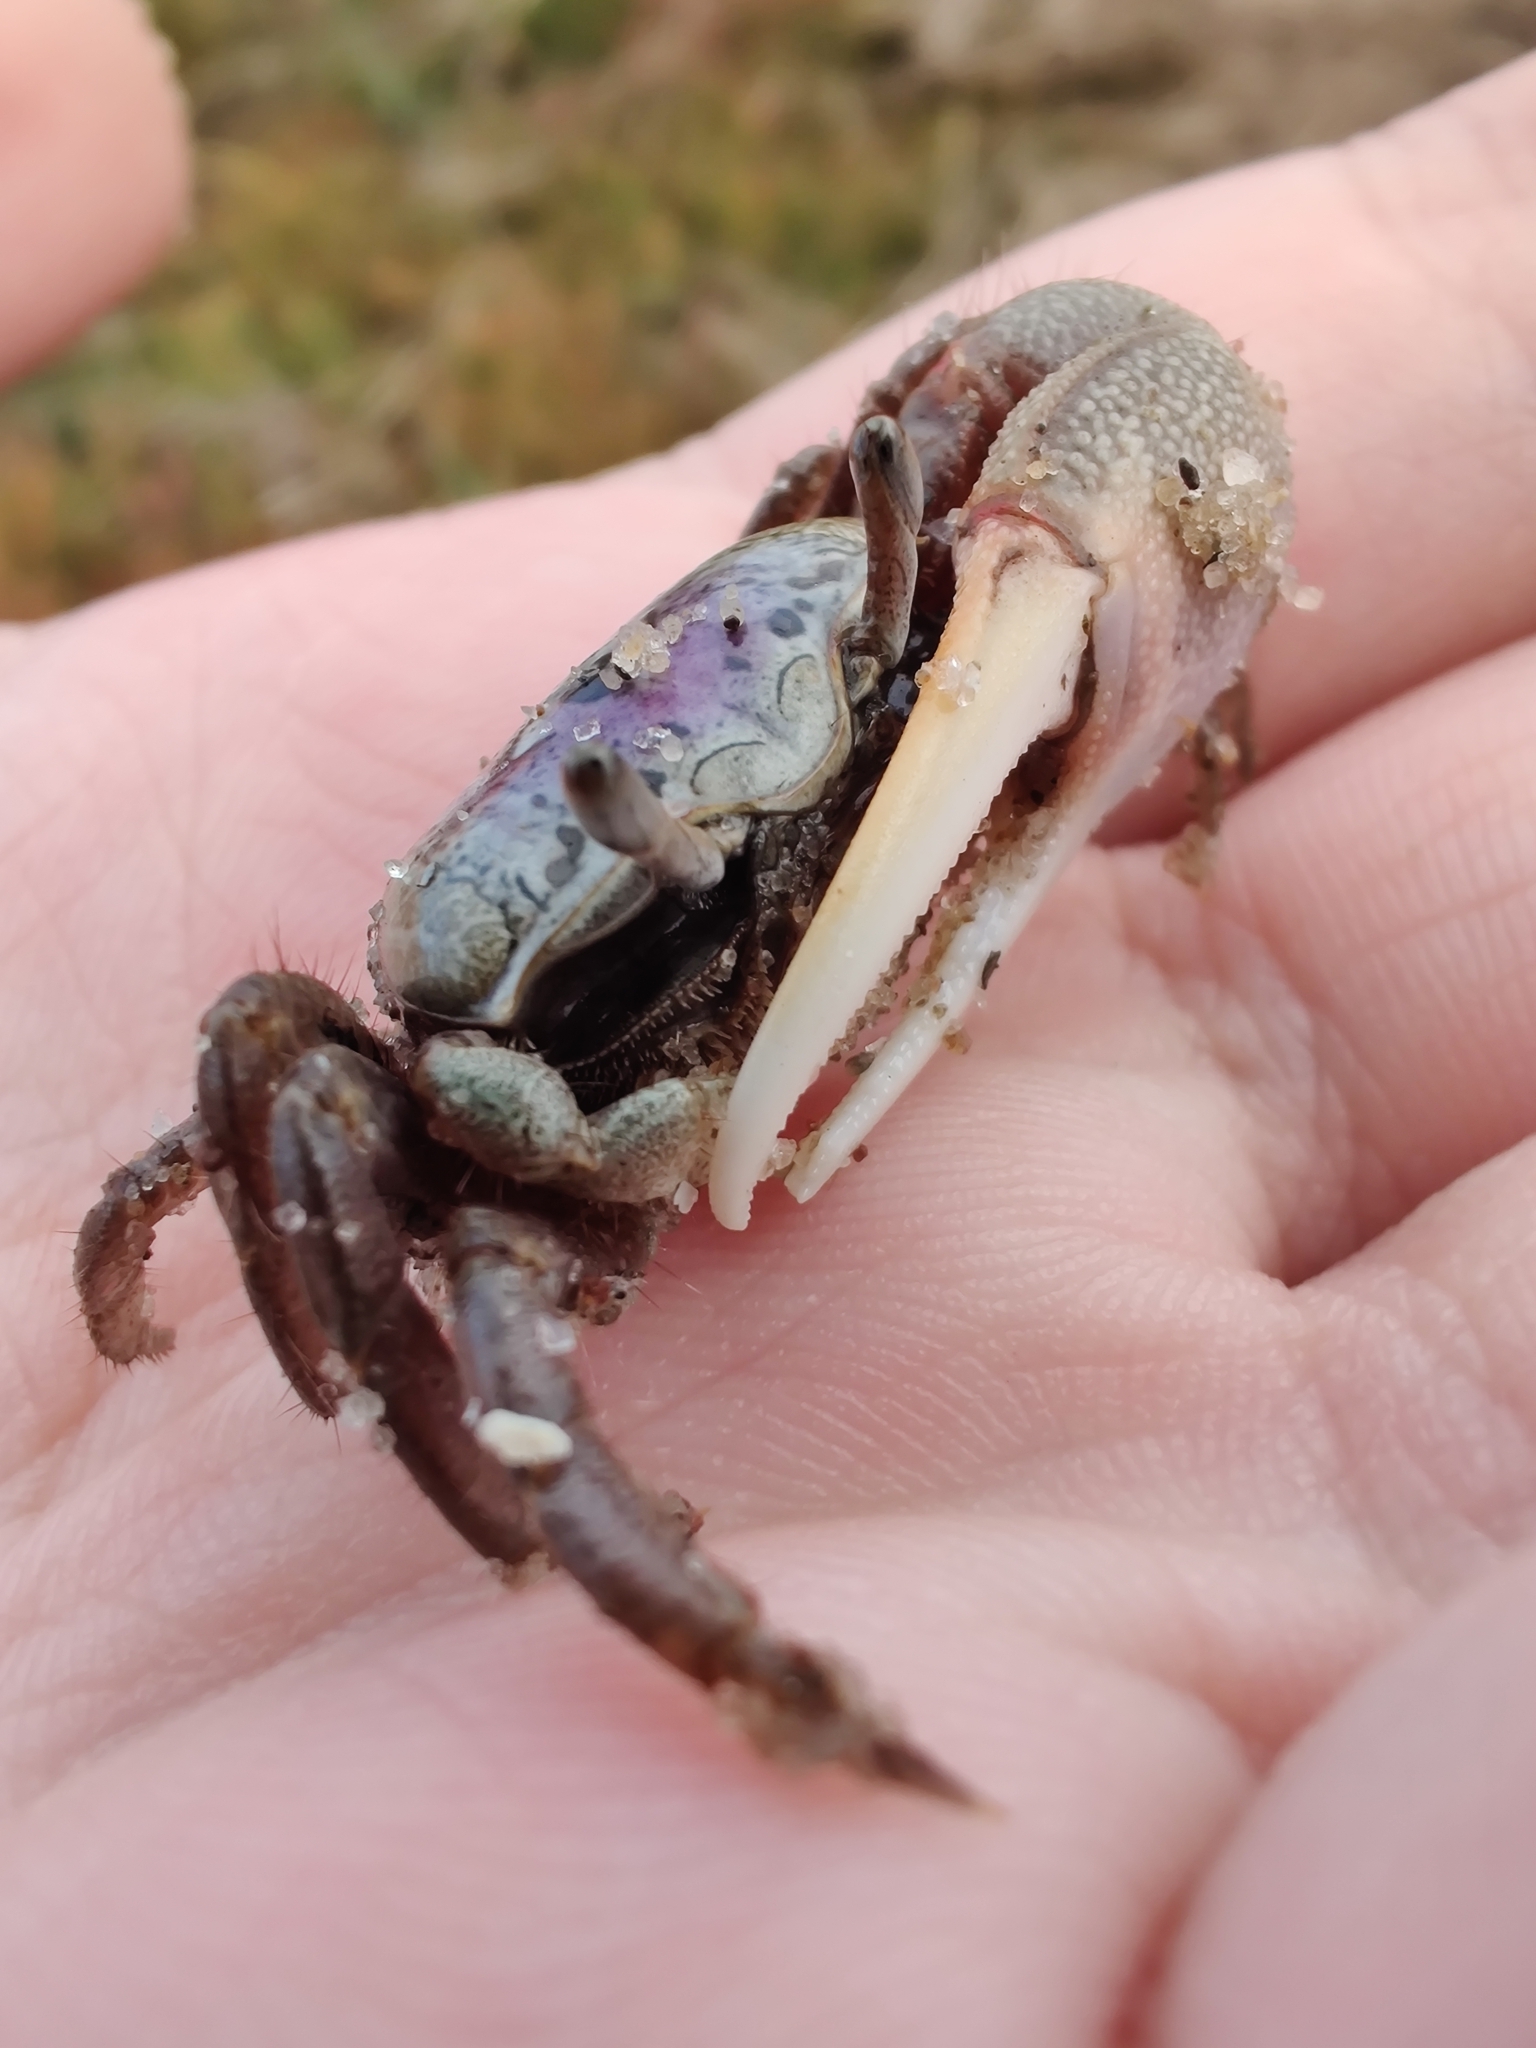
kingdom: Animalia
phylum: Arthropoda
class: Malacostraca
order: Decapoda
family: Ocypodidae
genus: Leptuca
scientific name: Leptuca pugilator
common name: Atlantic sand fiddler crab
